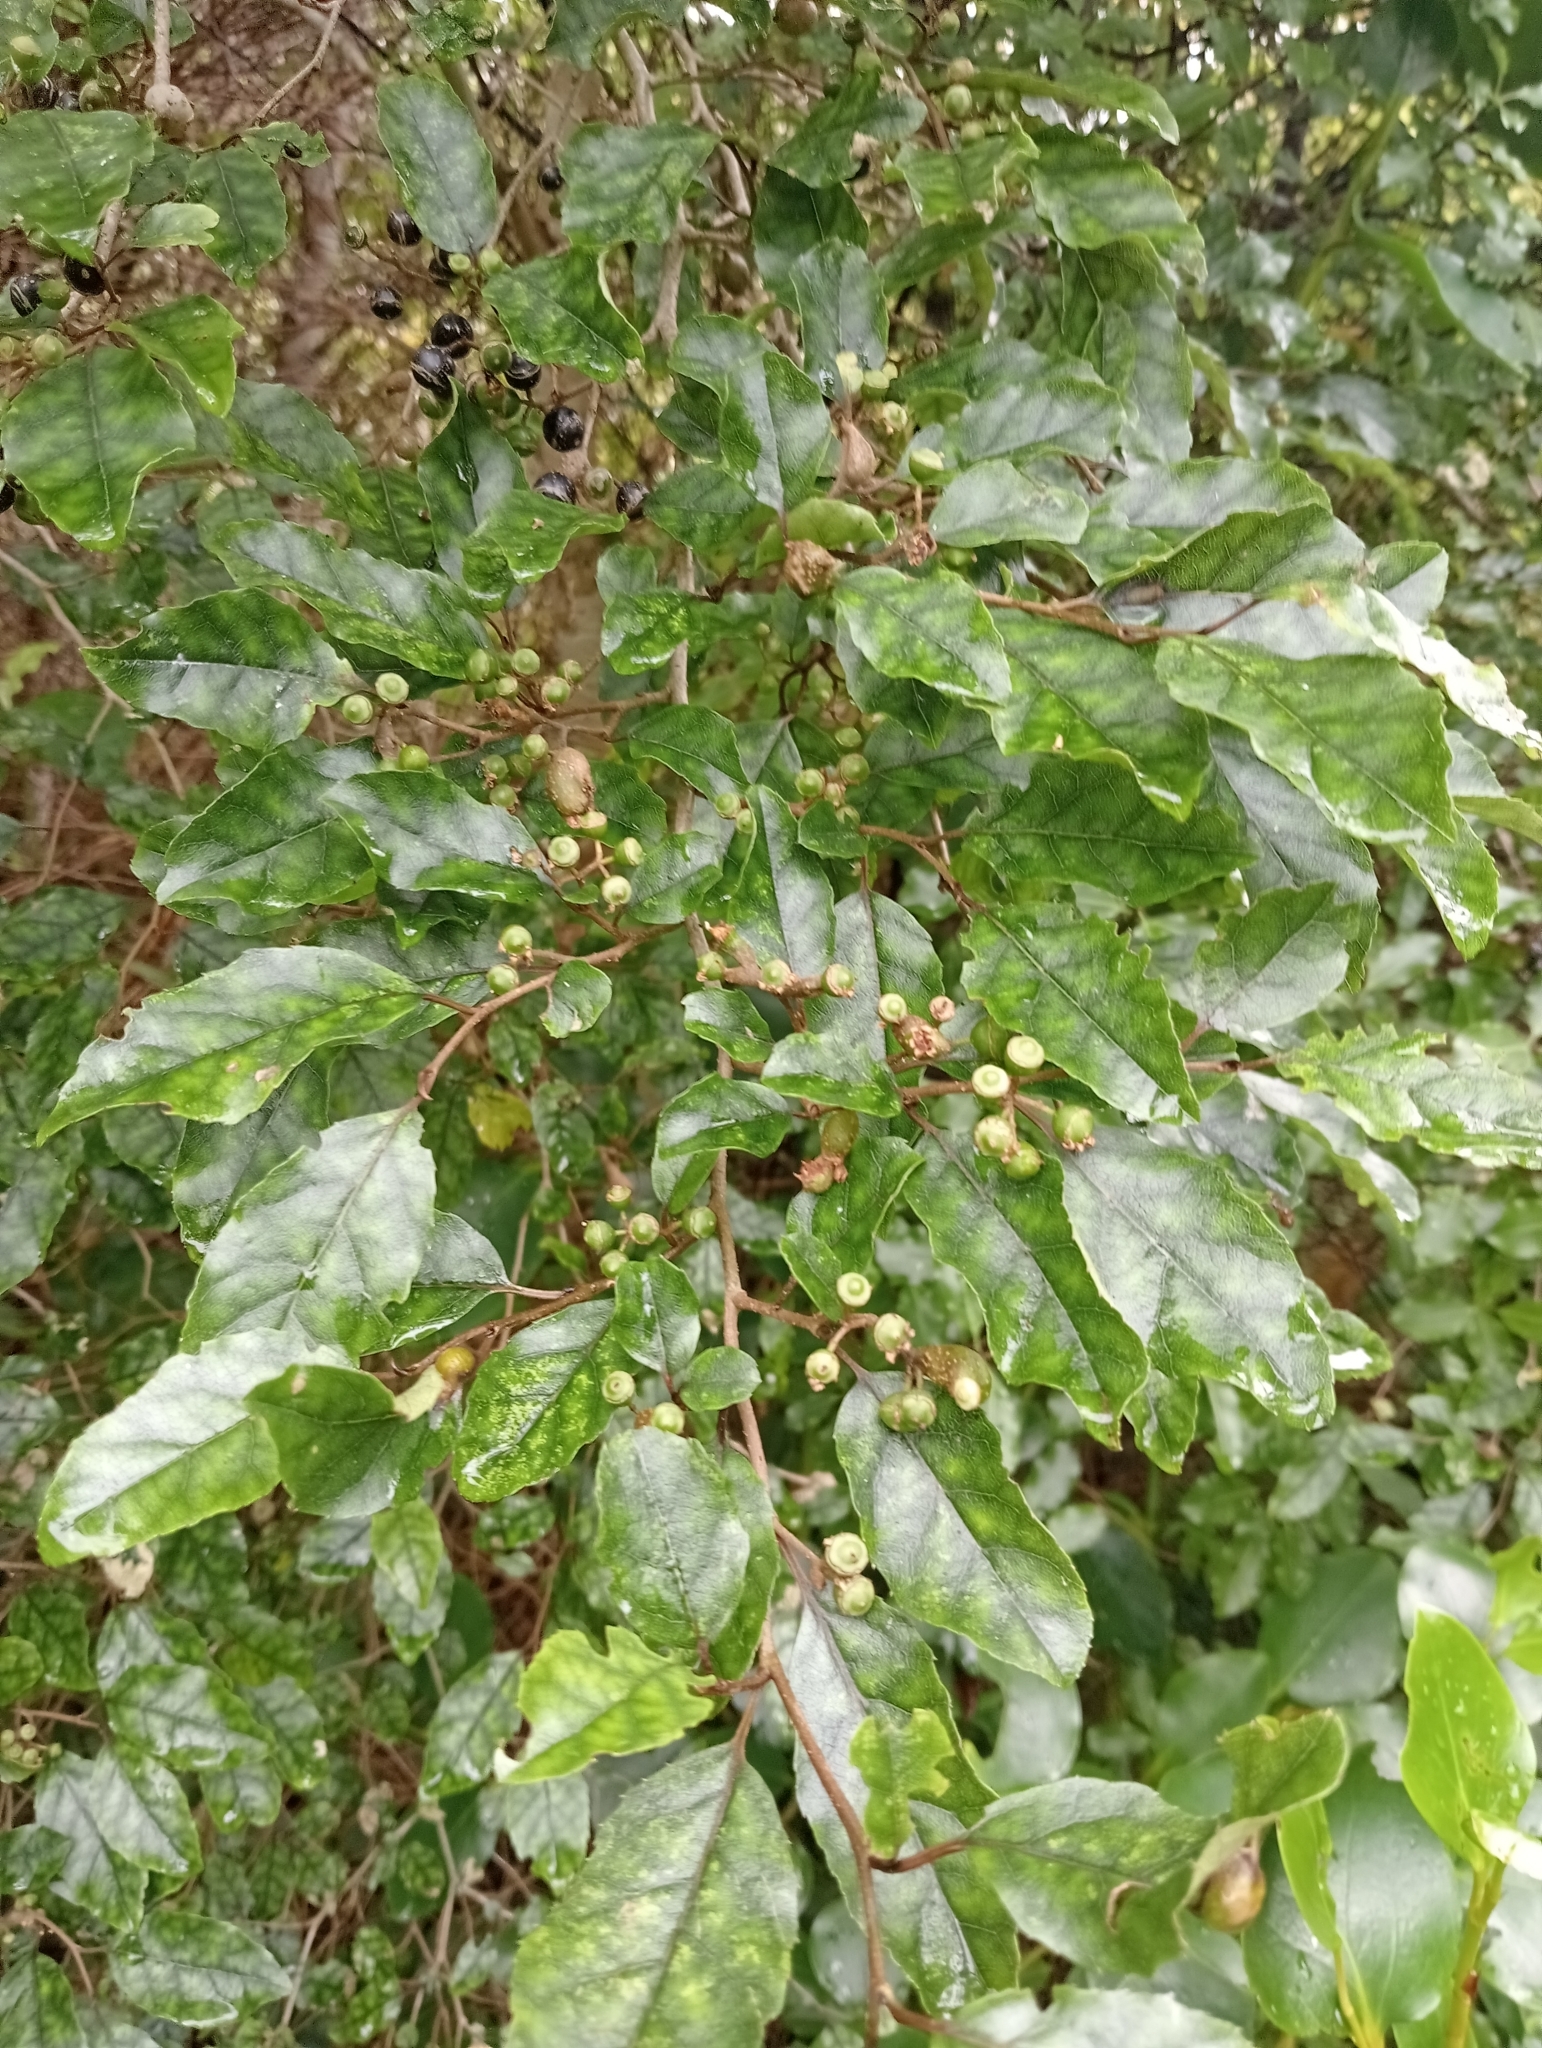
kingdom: Plantae
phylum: Tracheophyta
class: Magnoliopsida
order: Asterales
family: Rousseaceae
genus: Carpodetus
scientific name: Carpodetus serratus
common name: White mapau
